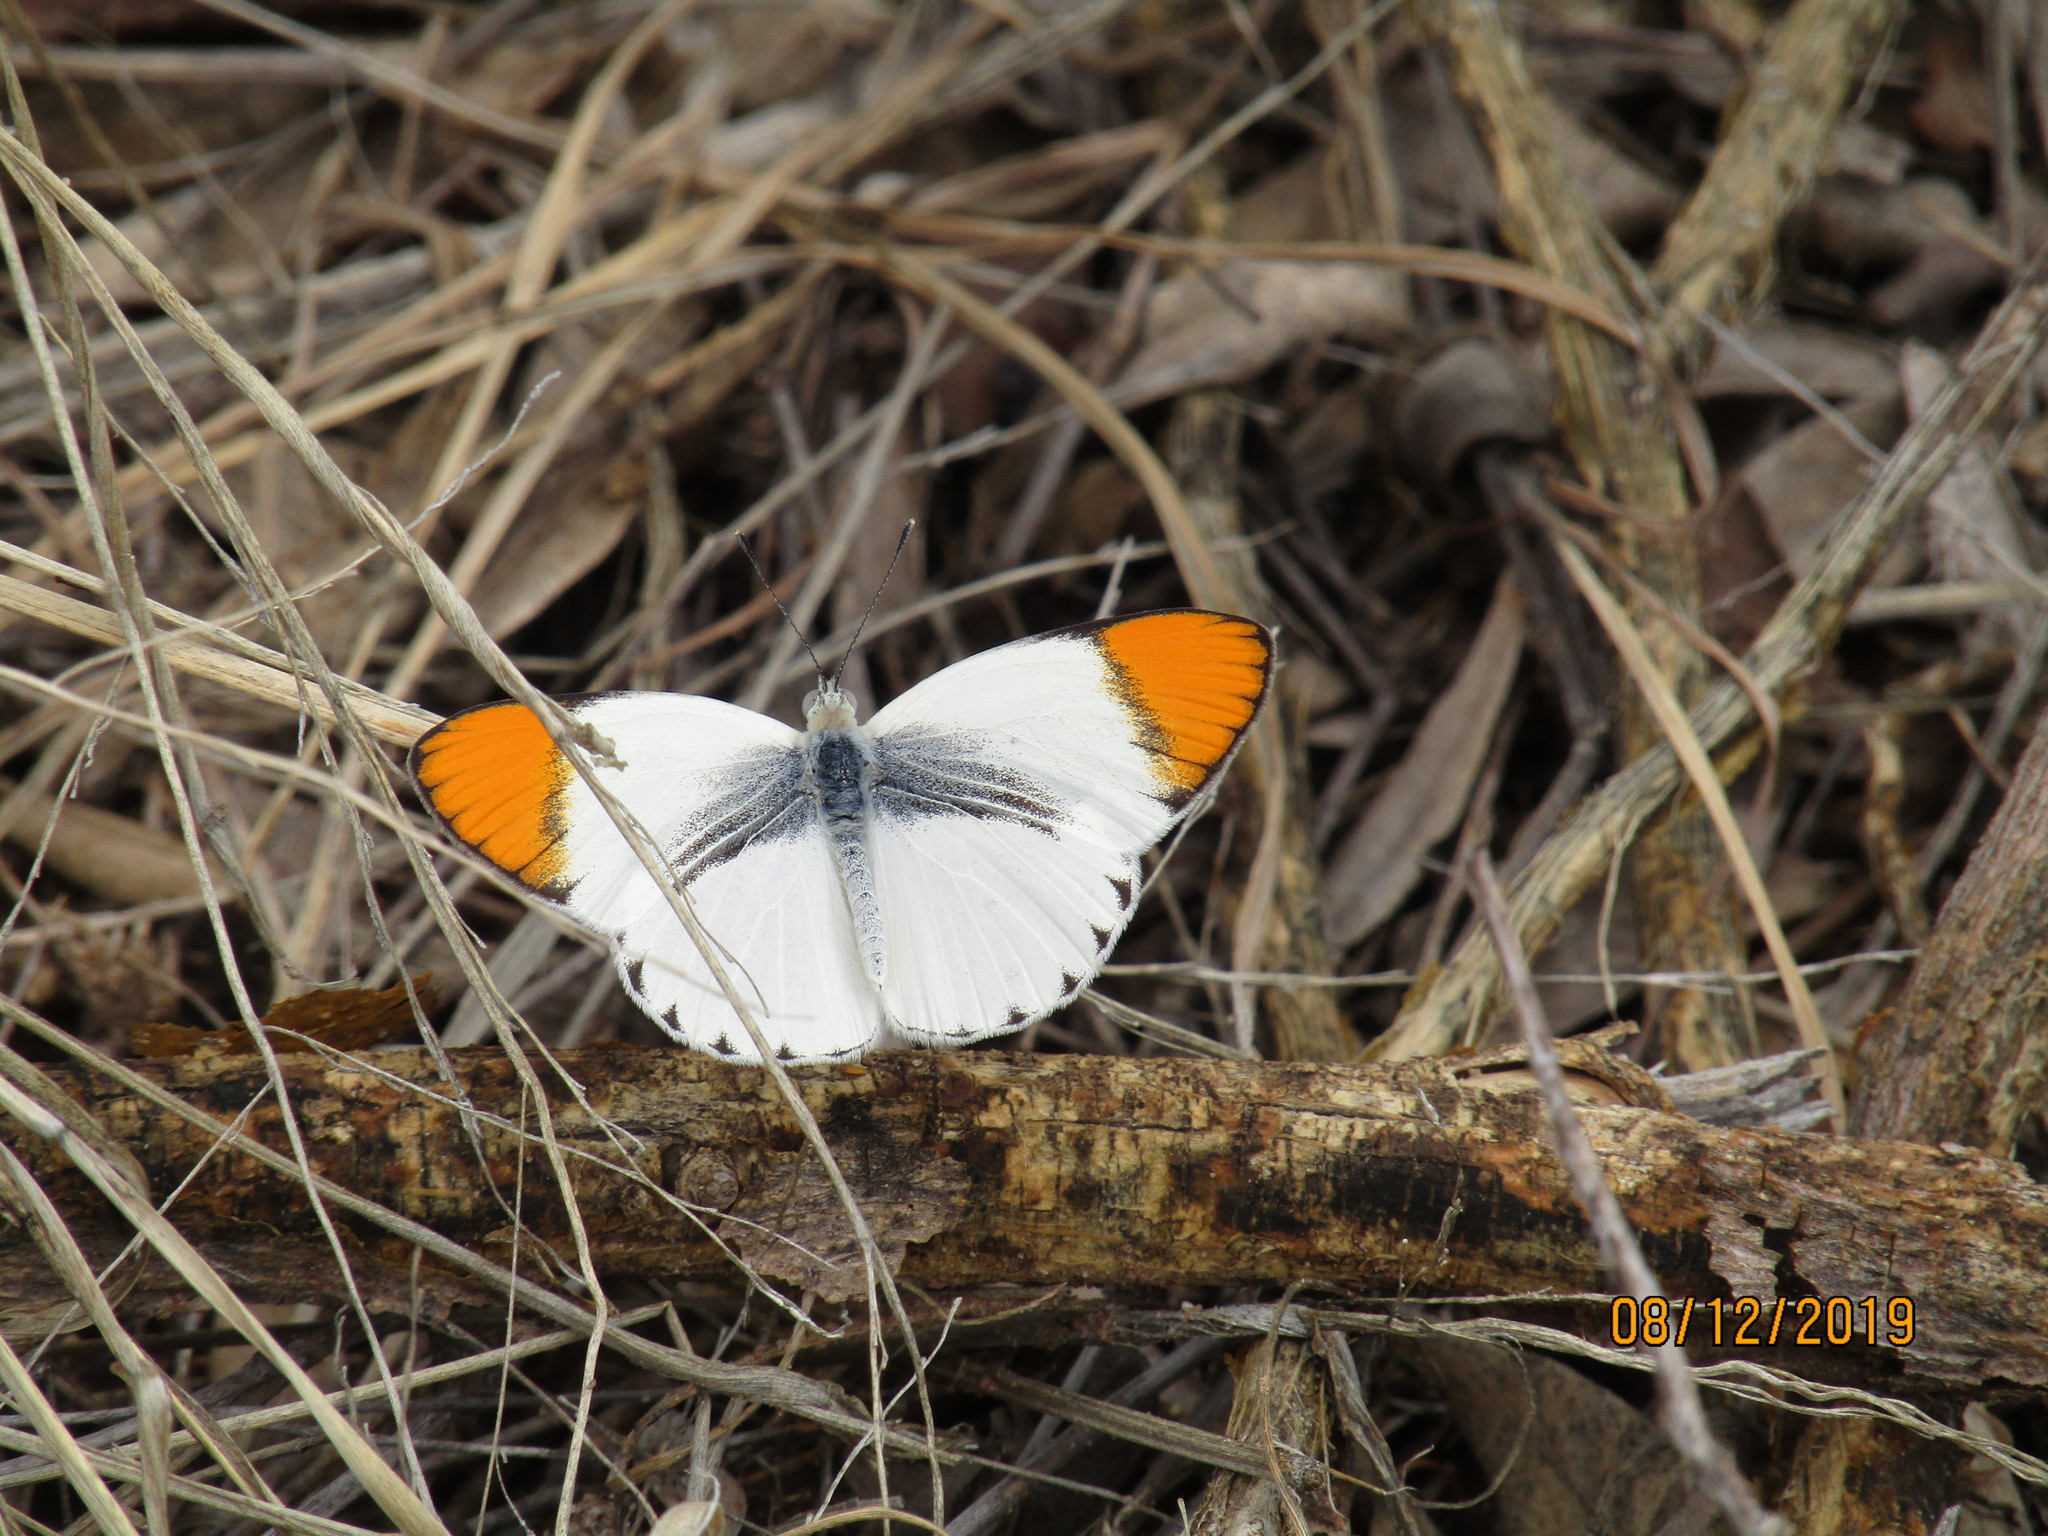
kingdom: Animalia
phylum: Arthropoda
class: Insecta
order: Lepidoptera
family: Pieridae
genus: Colotis
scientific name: Colotis evenina
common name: Common orange tip
